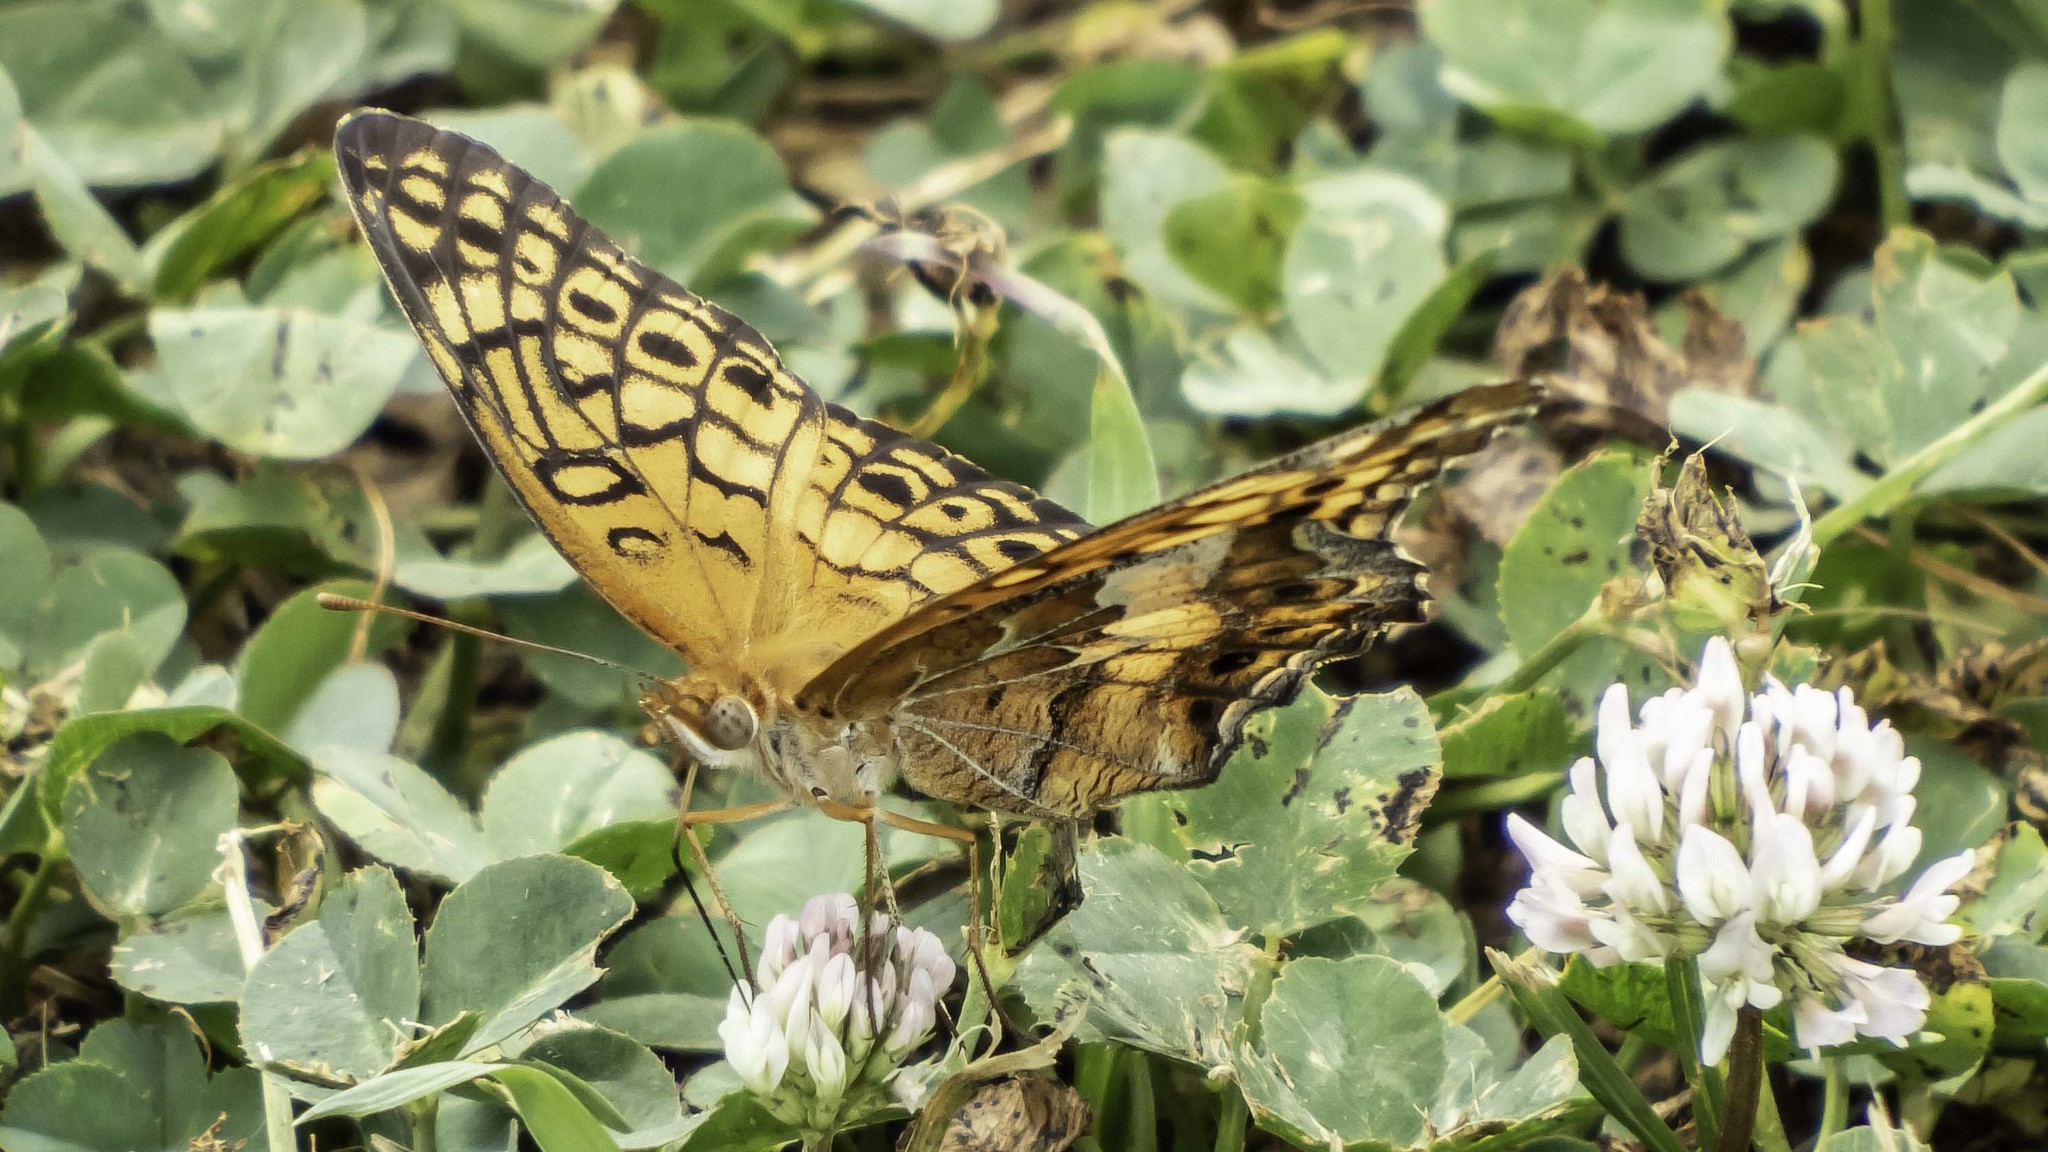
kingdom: Animalia
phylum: Arthropoda
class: Insecta
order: Lepidoptera
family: Nymphalidae
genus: Euptoieta
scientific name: Euptoieta claudia
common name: Variegated fritillary
